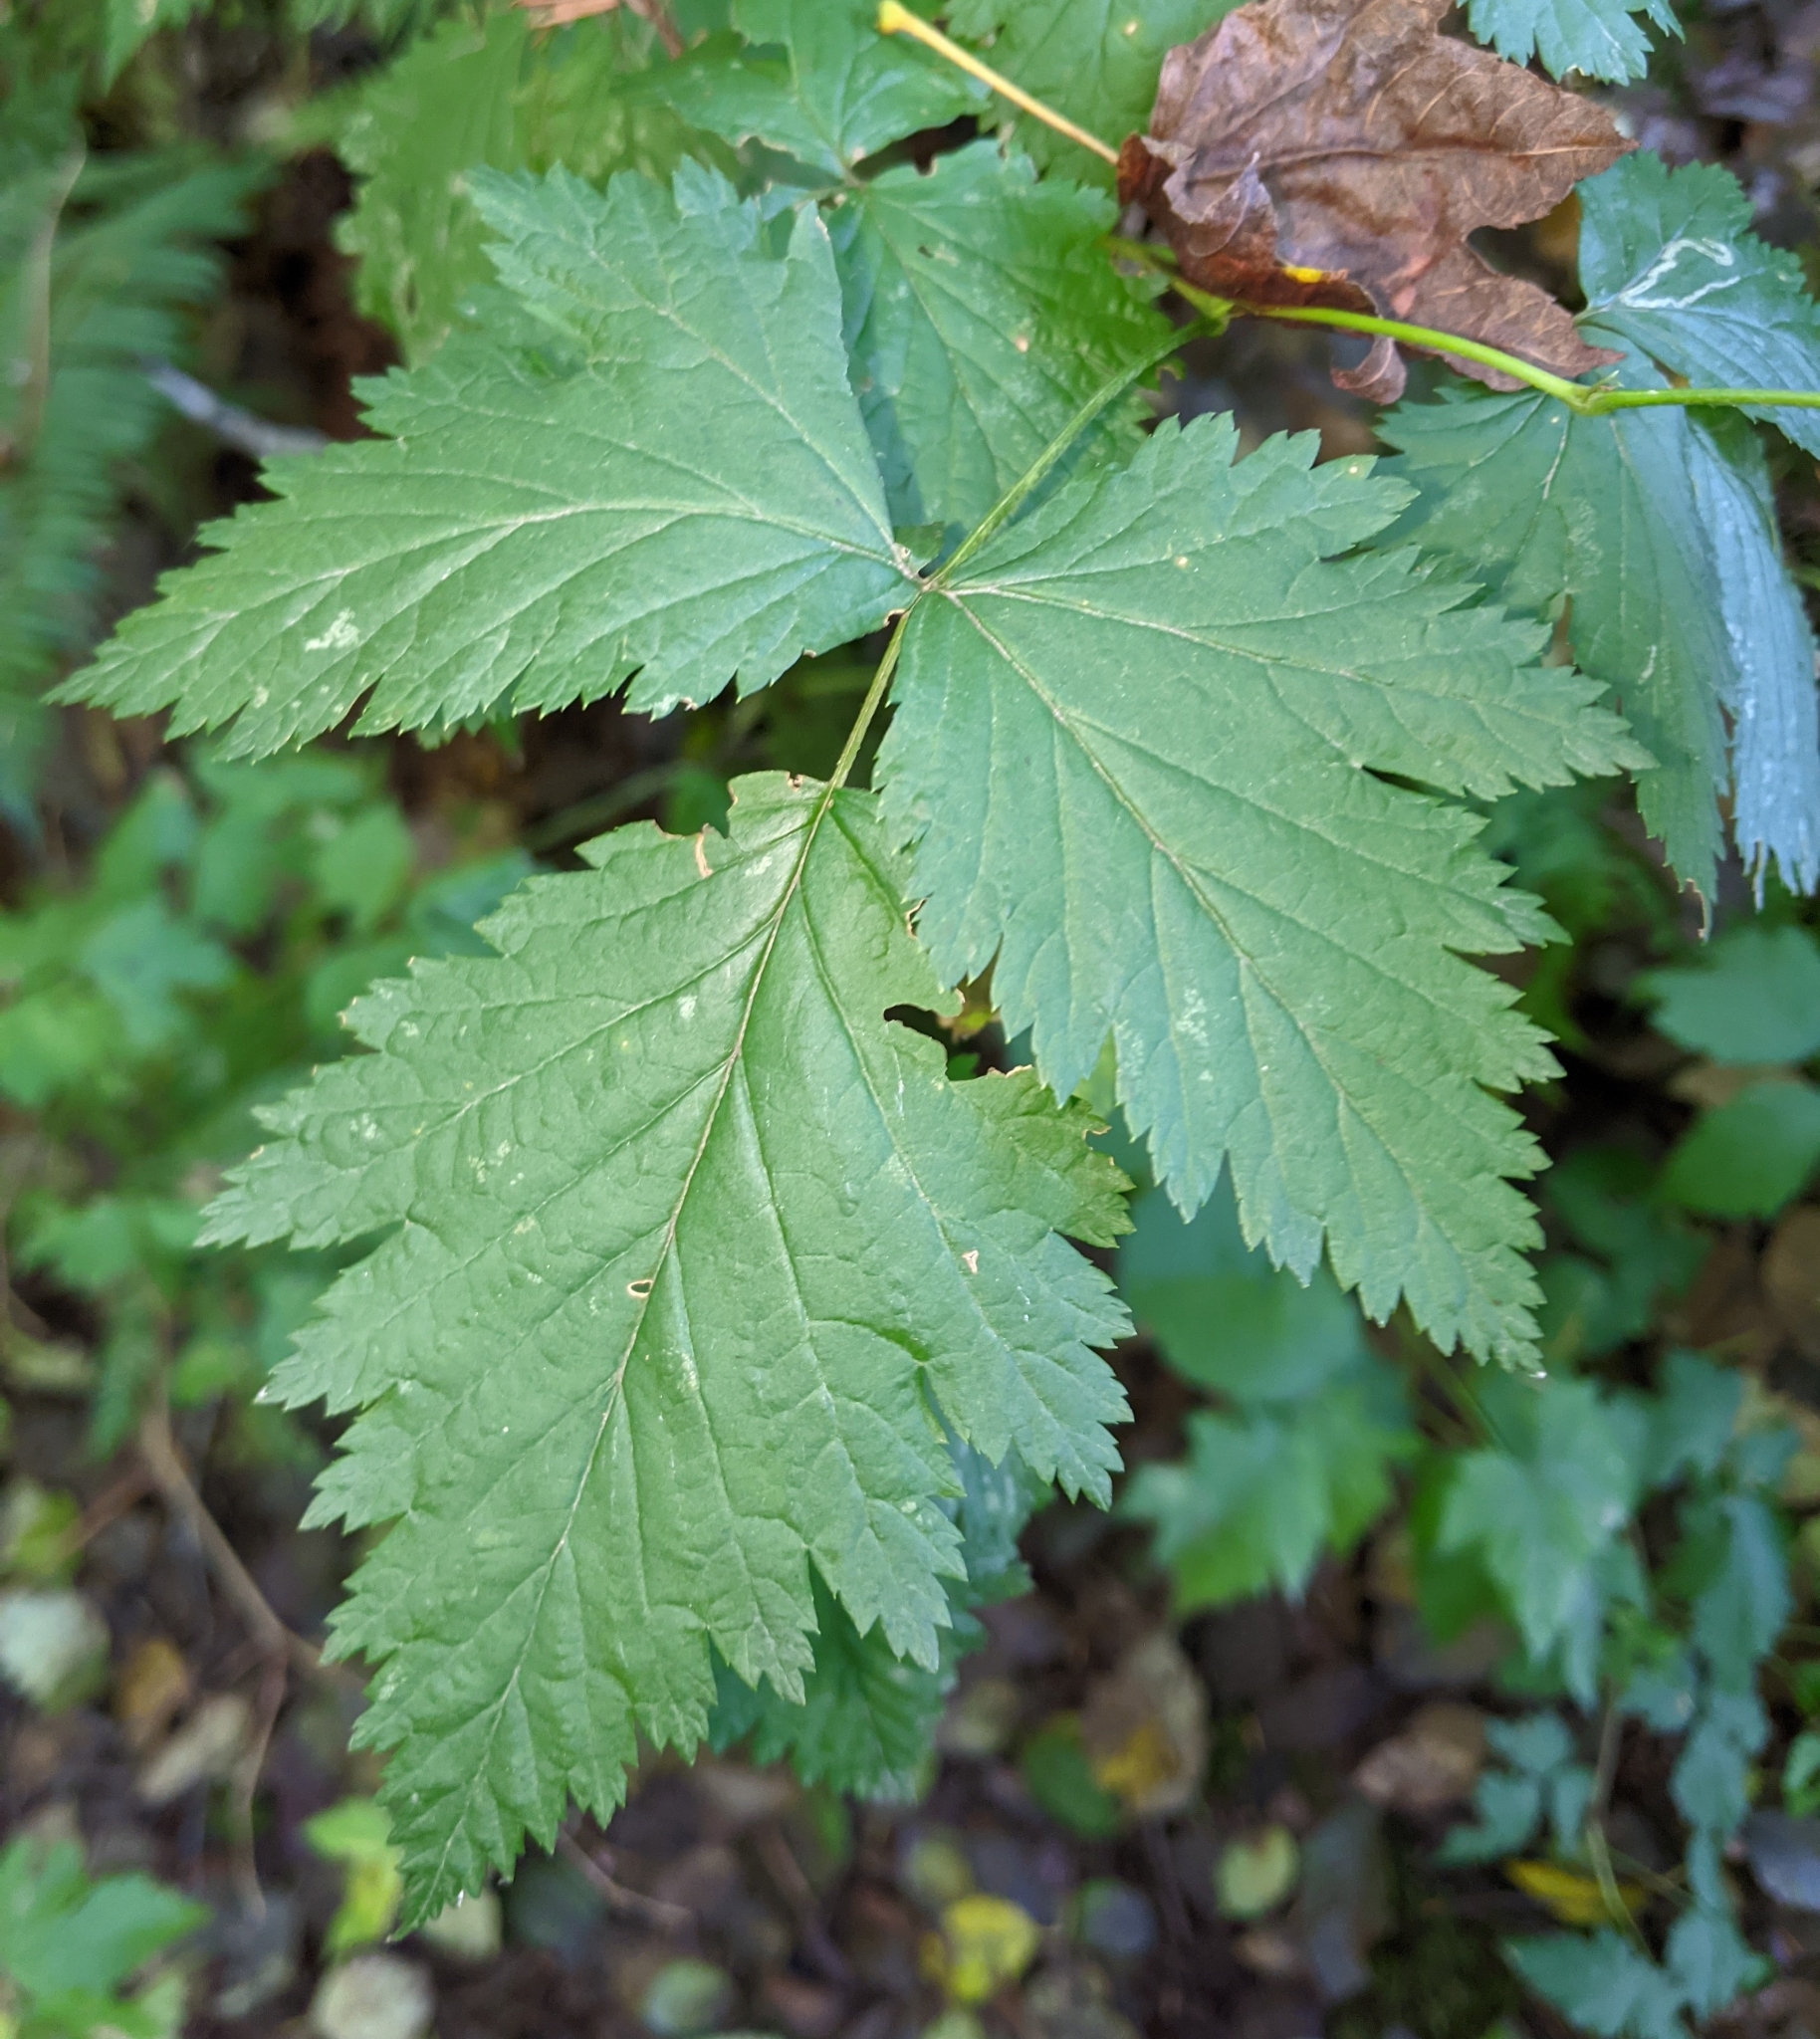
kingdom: Plantae
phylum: Tracheophyta
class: Magnoliopsida
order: Rosales
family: Rosaceae
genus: Rubus
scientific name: Rubus spectabilis
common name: Salmonberry
